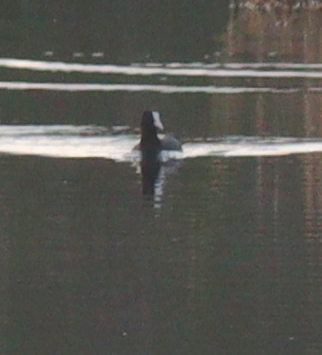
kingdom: Animalia
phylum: Chordata
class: Aves
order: Gruiformes
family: Rallidae
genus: Fulica
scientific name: Fulica atra
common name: Eurasian coot
